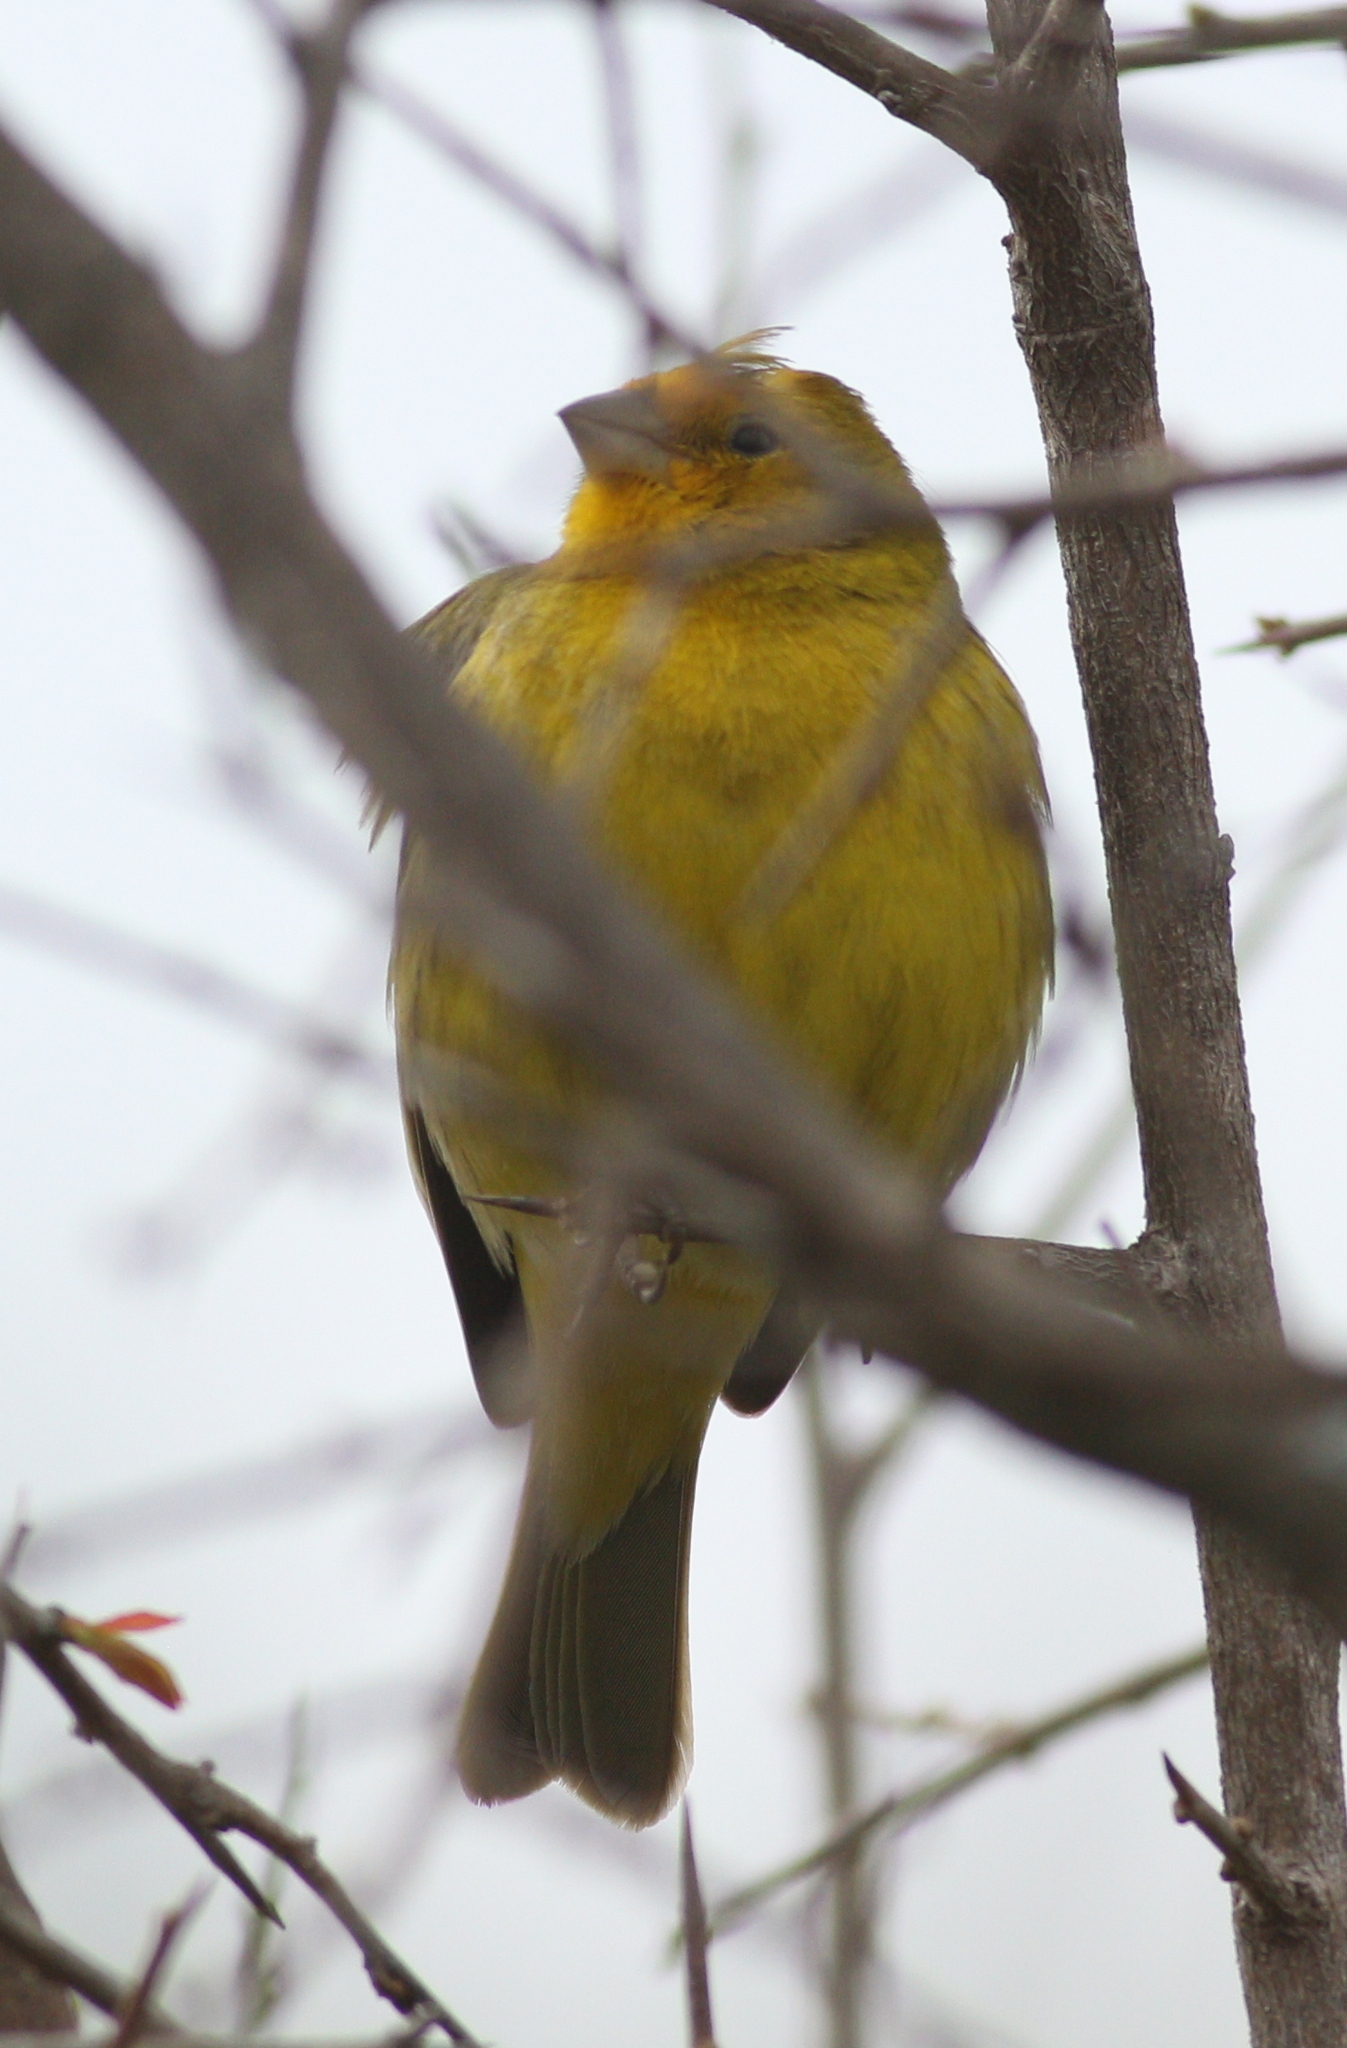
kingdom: Animalia
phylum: Chordata
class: Aves
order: Passeriformes
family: Thraupidae
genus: Sicalis
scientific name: Sicalis flaveola
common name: Saffron finch
